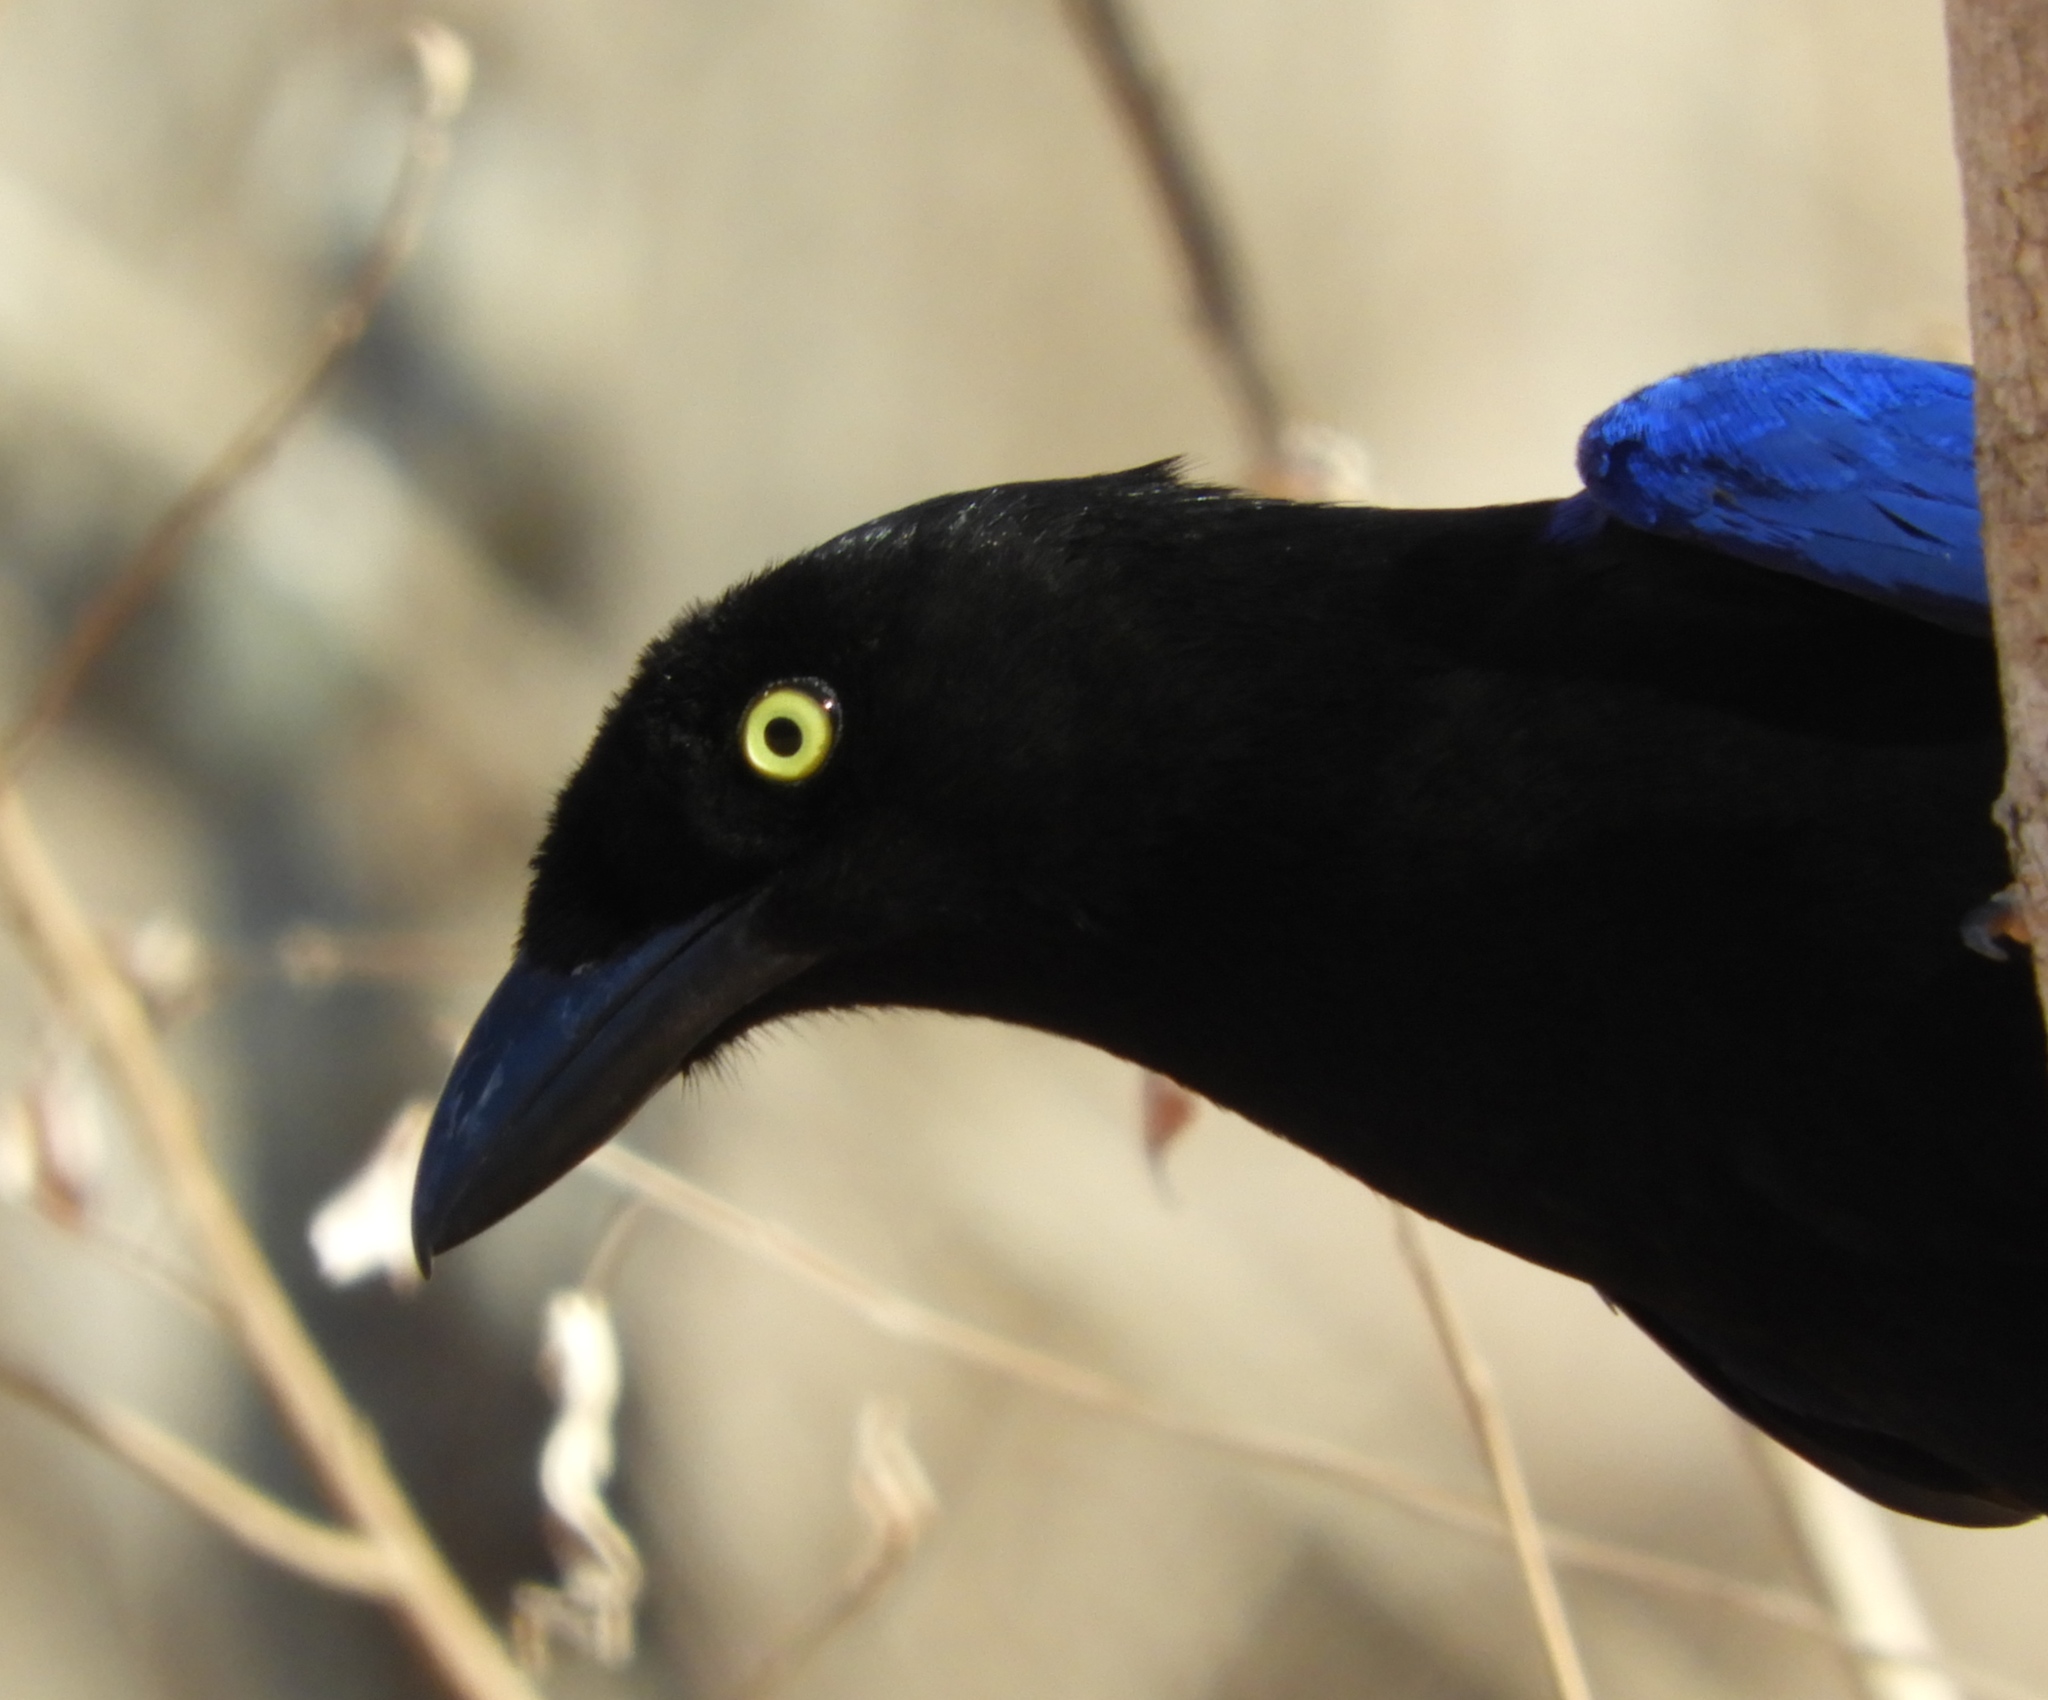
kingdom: Animalia
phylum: Chordata
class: Aves
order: Passeriformes
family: Corvidae
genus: Cyanocorax
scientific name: Cyanocorax beecheii
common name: Purplish-backed jay
